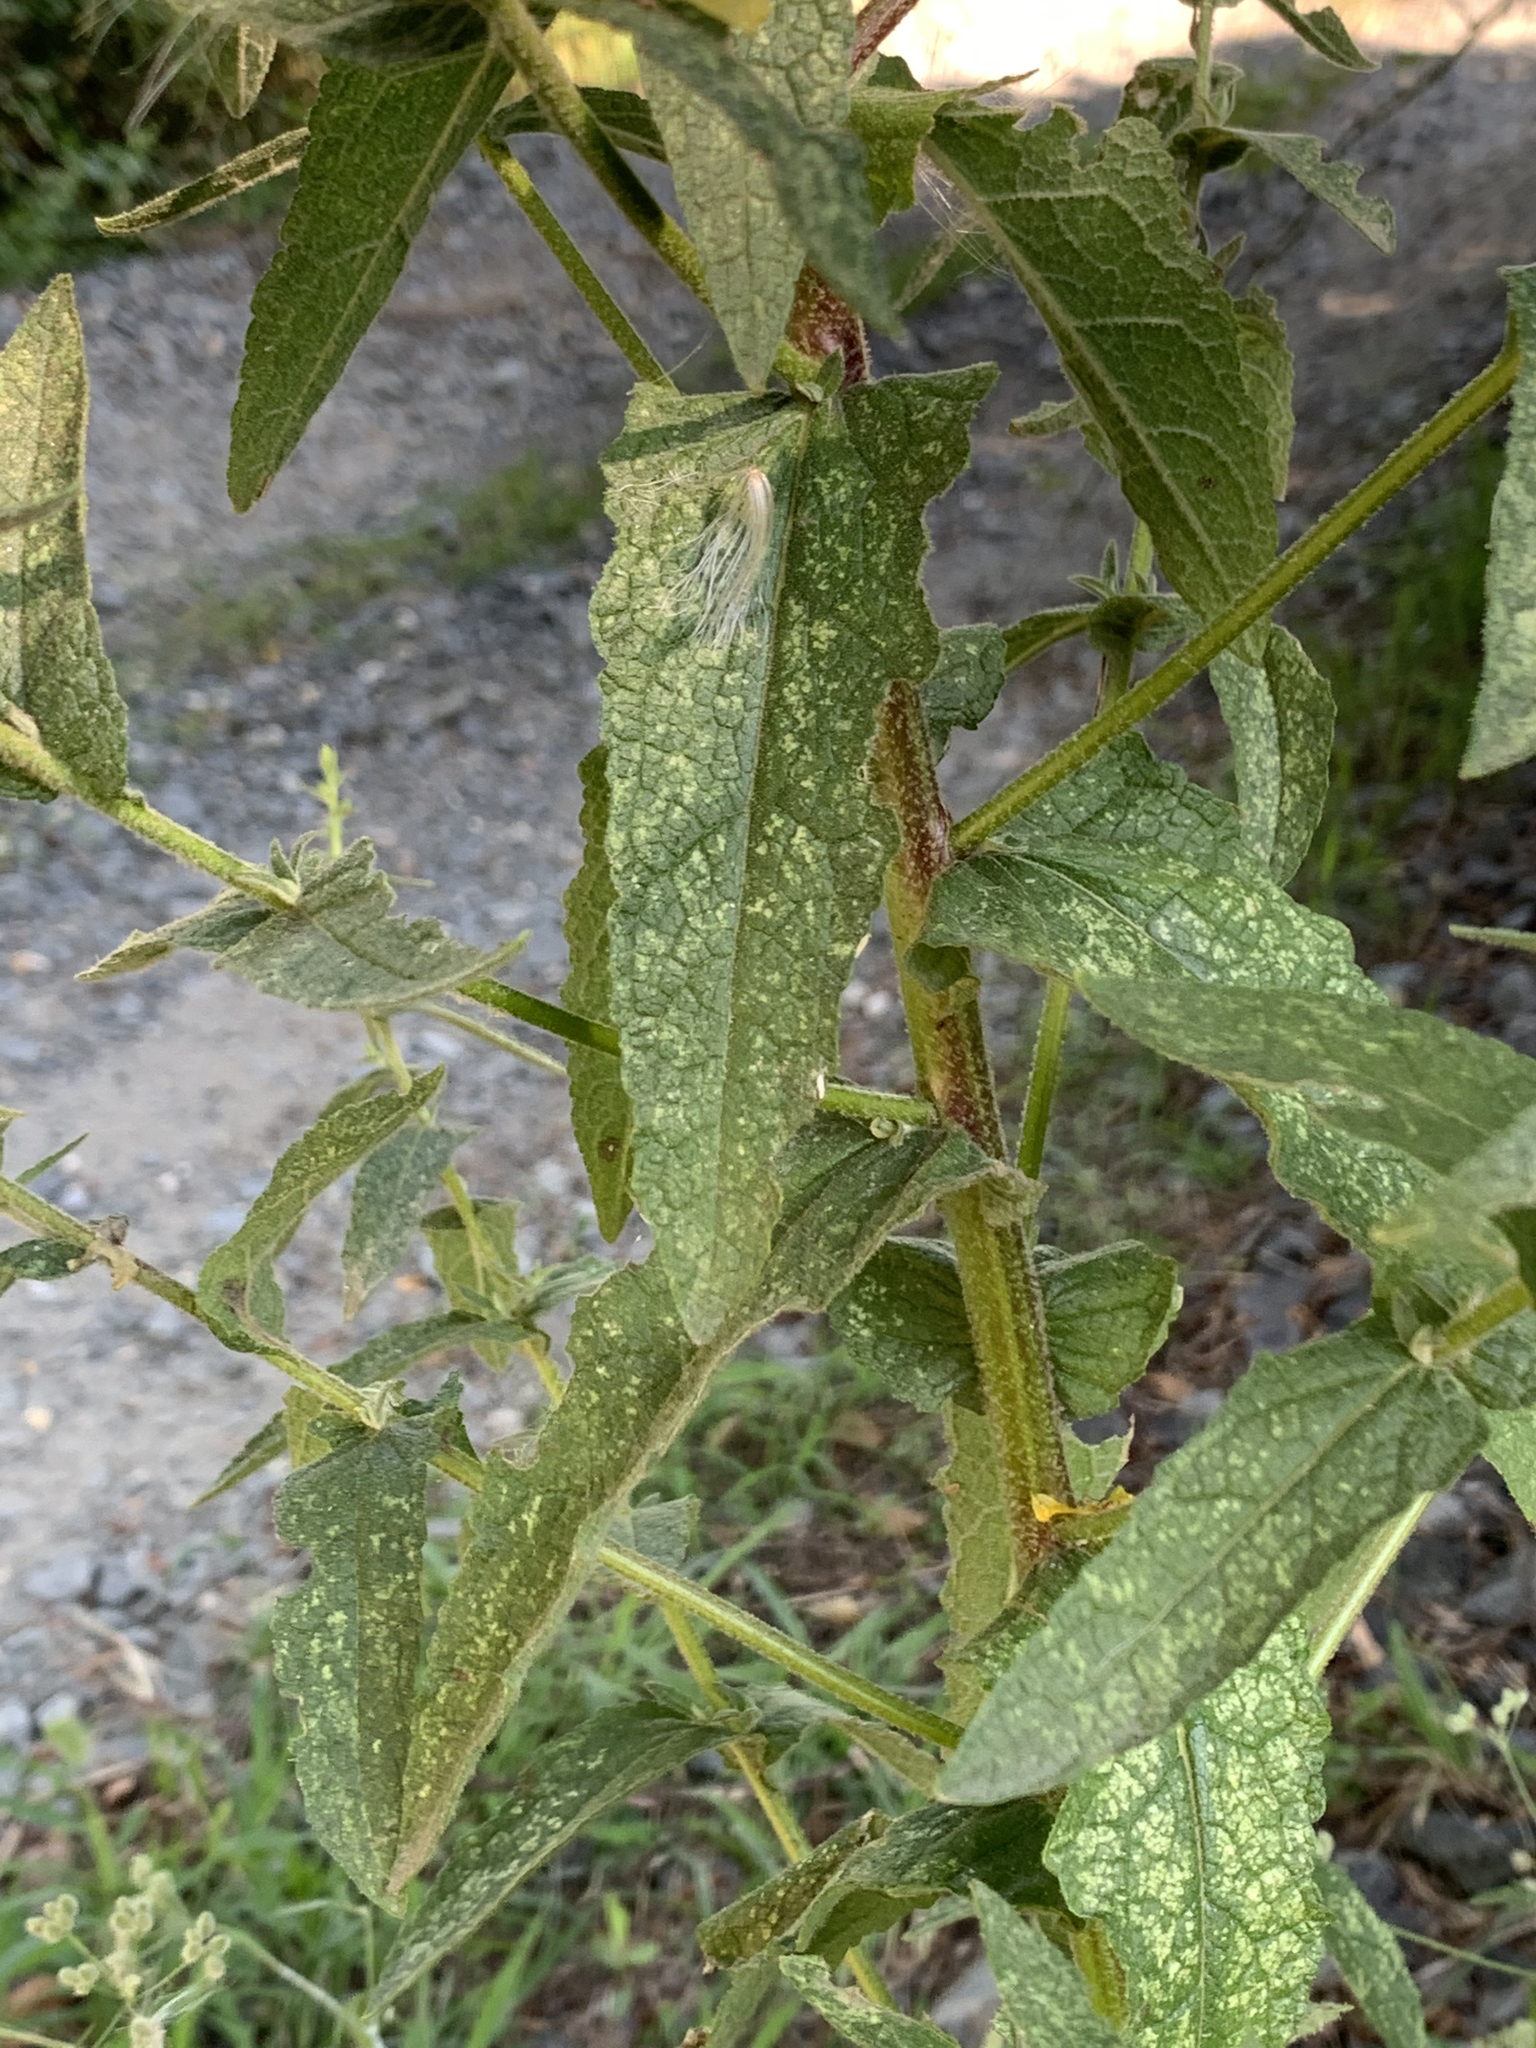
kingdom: Plantae
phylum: Tracheophyta
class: Magnoliopsida
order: Lamiales
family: Scrophulariaceae
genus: Verbascum
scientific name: Verbascum sinuatum
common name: Wavyleaf mullein
